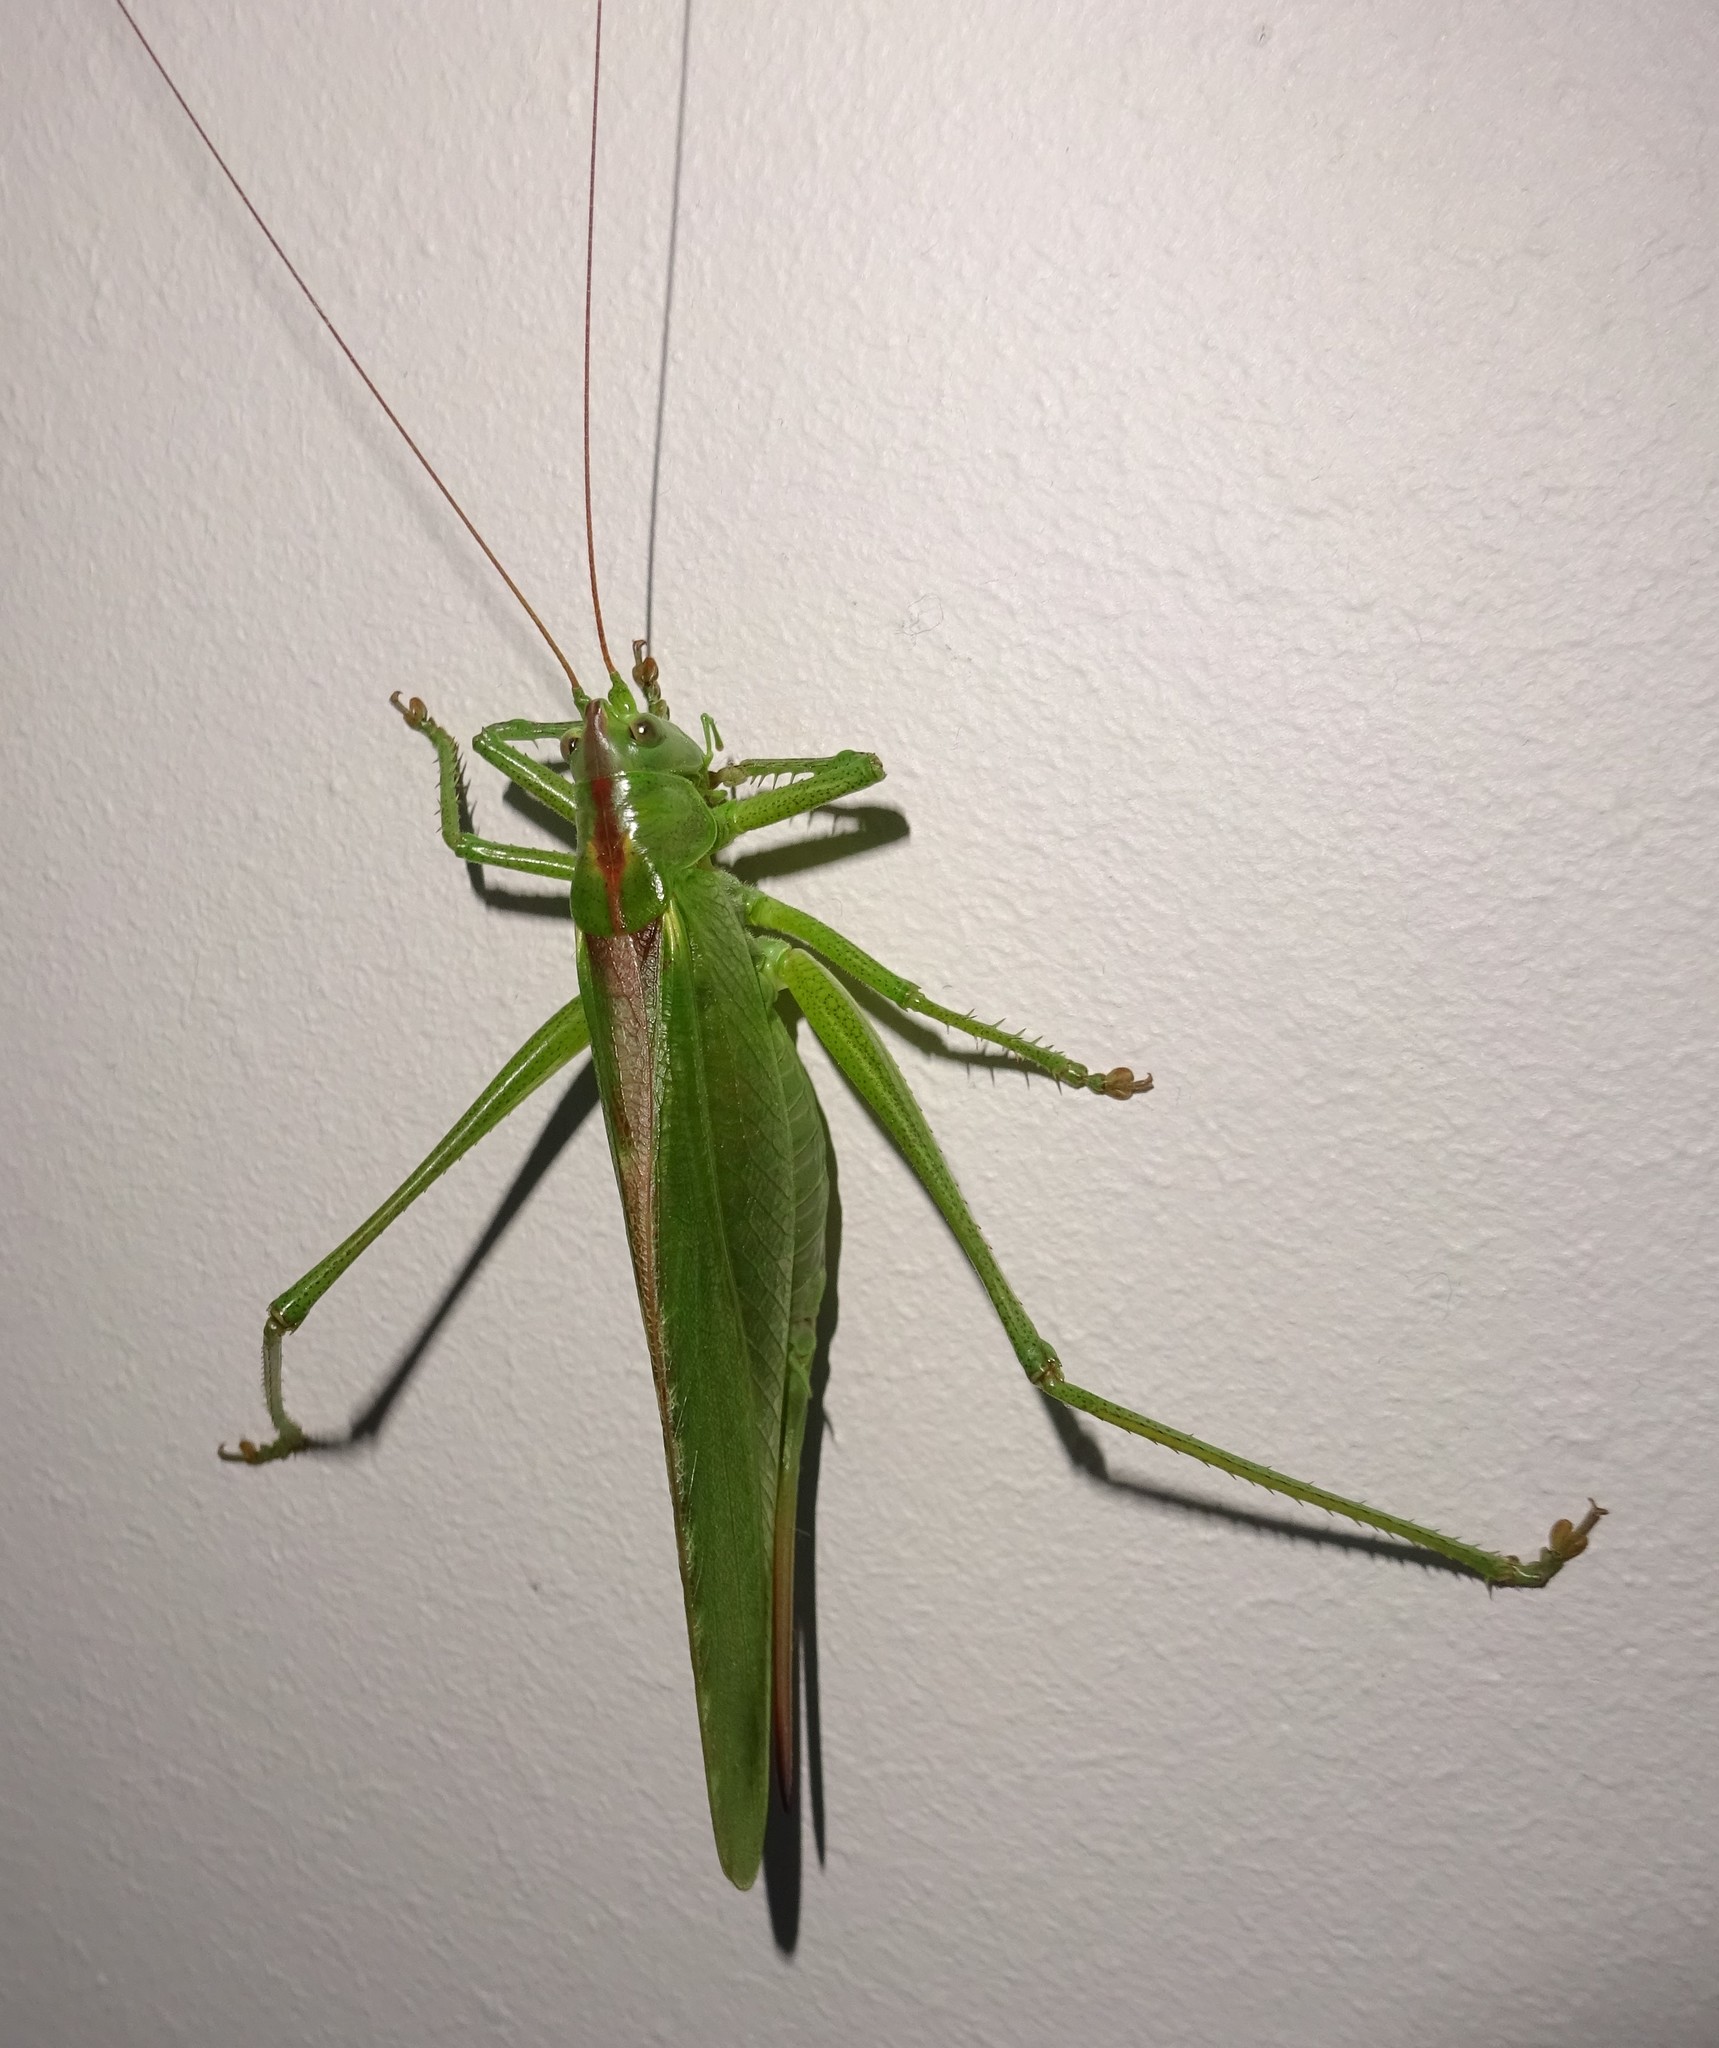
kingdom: Animalia
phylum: Arthropoda
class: Insecta
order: Orthoptera
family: Tettigoniidae
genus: Tettigonia
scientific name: Tettigonia viridissima
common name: Great green bush-cricket
